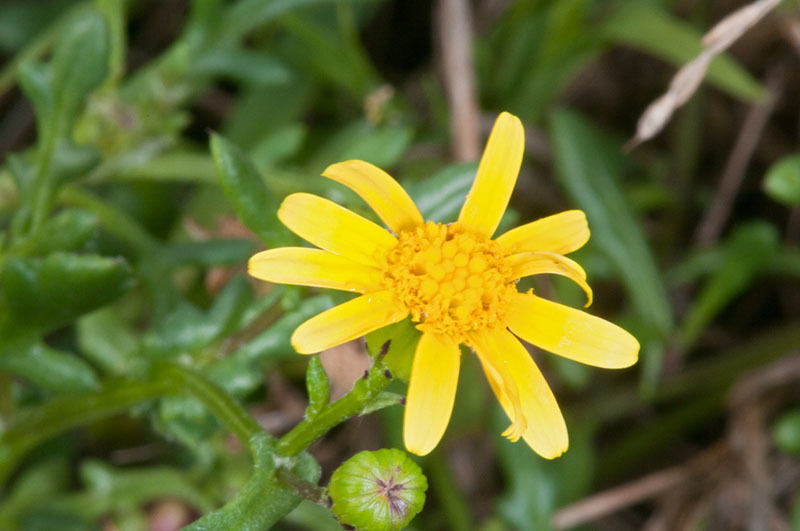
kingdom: Plantae
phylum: Tracheophyta
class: Magnoliopsida
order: Asterales
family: Asteraceae
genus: Senecio
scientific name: Senecio lautus
